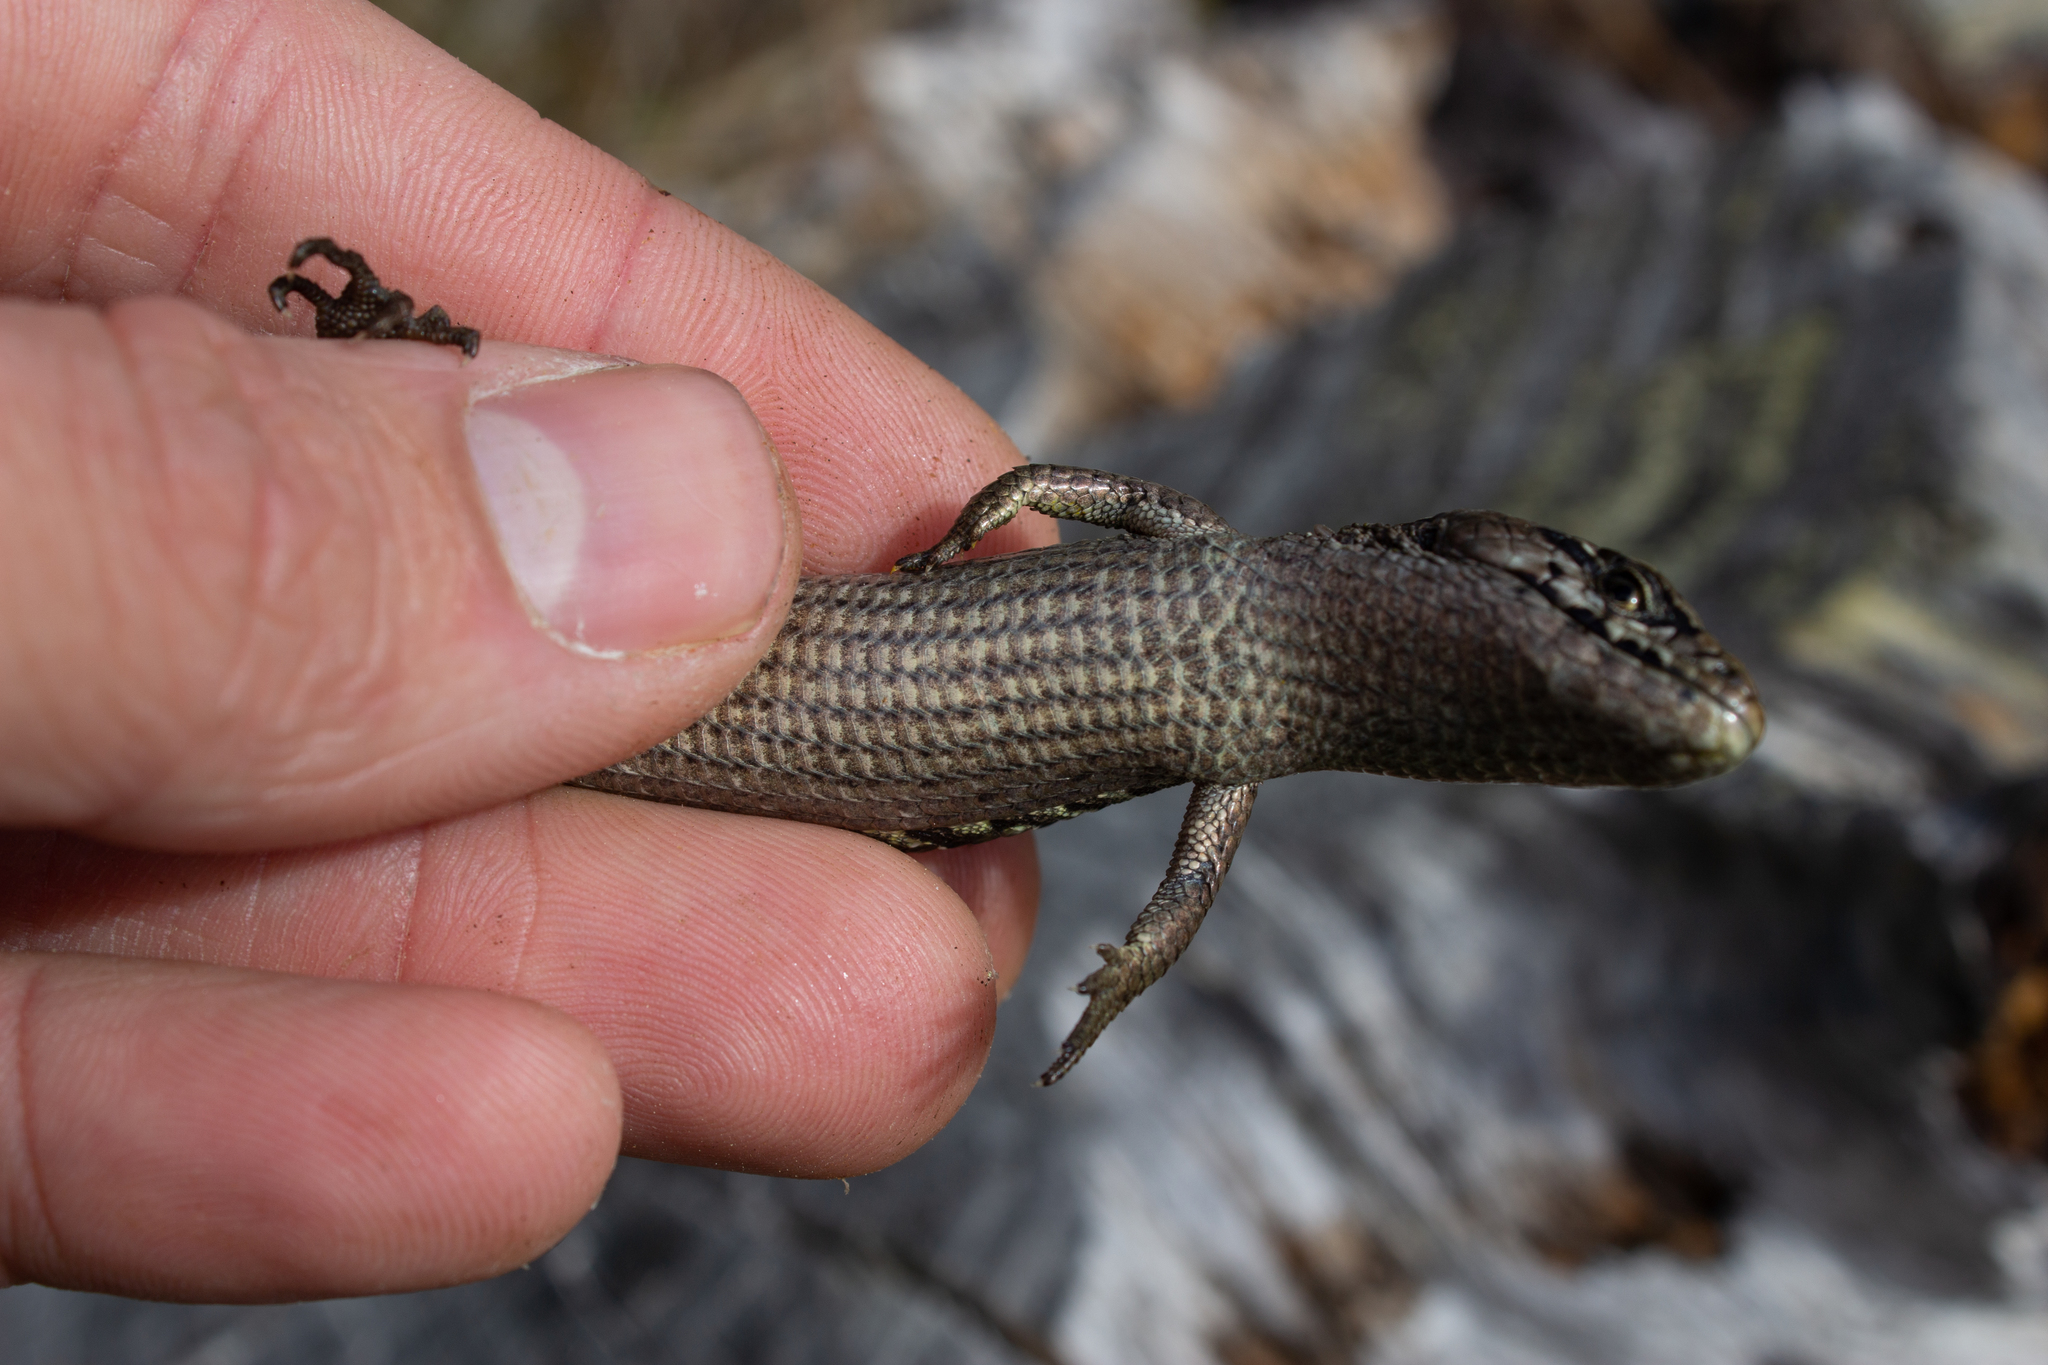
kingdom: Animalia
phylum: Chordata
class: Squamata
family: Anguidae
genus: Elgaria
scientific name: Elgaria coerulea
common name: Northern alligator lizard
